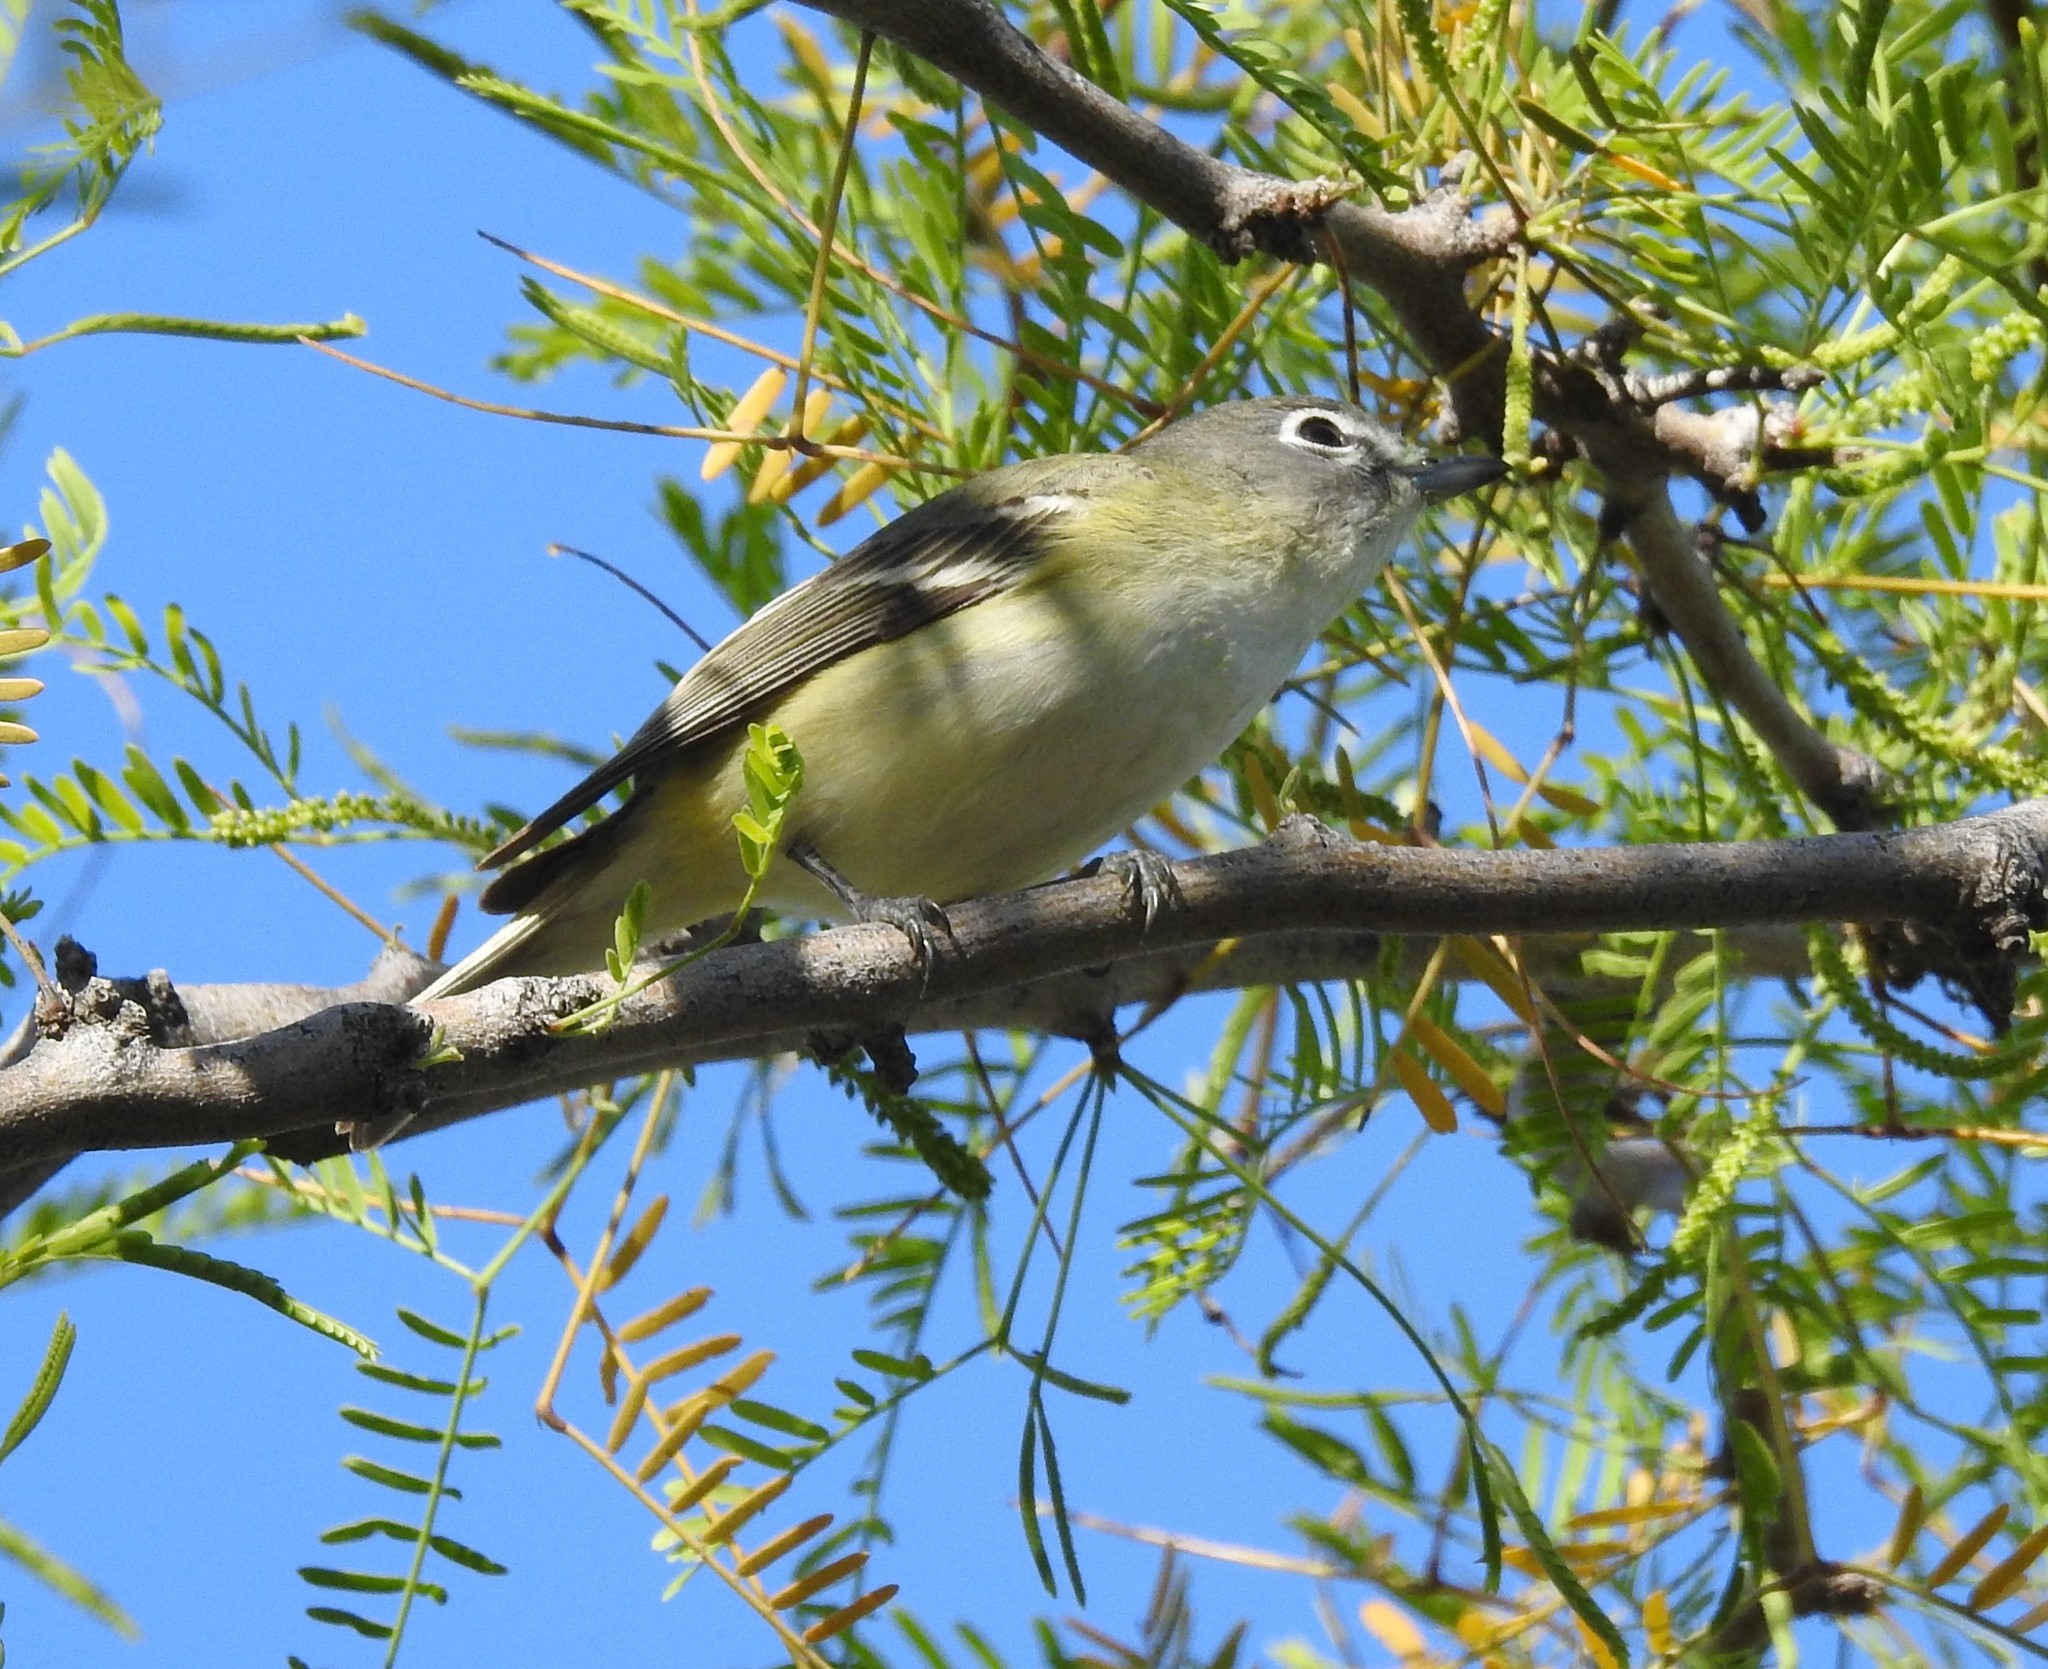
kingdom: Animalia
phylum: Chordata
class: Aves
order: Passeriformes
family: Vireonidae
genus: Vireo
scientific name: Vireo cassinii
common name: Cassin's vireo
